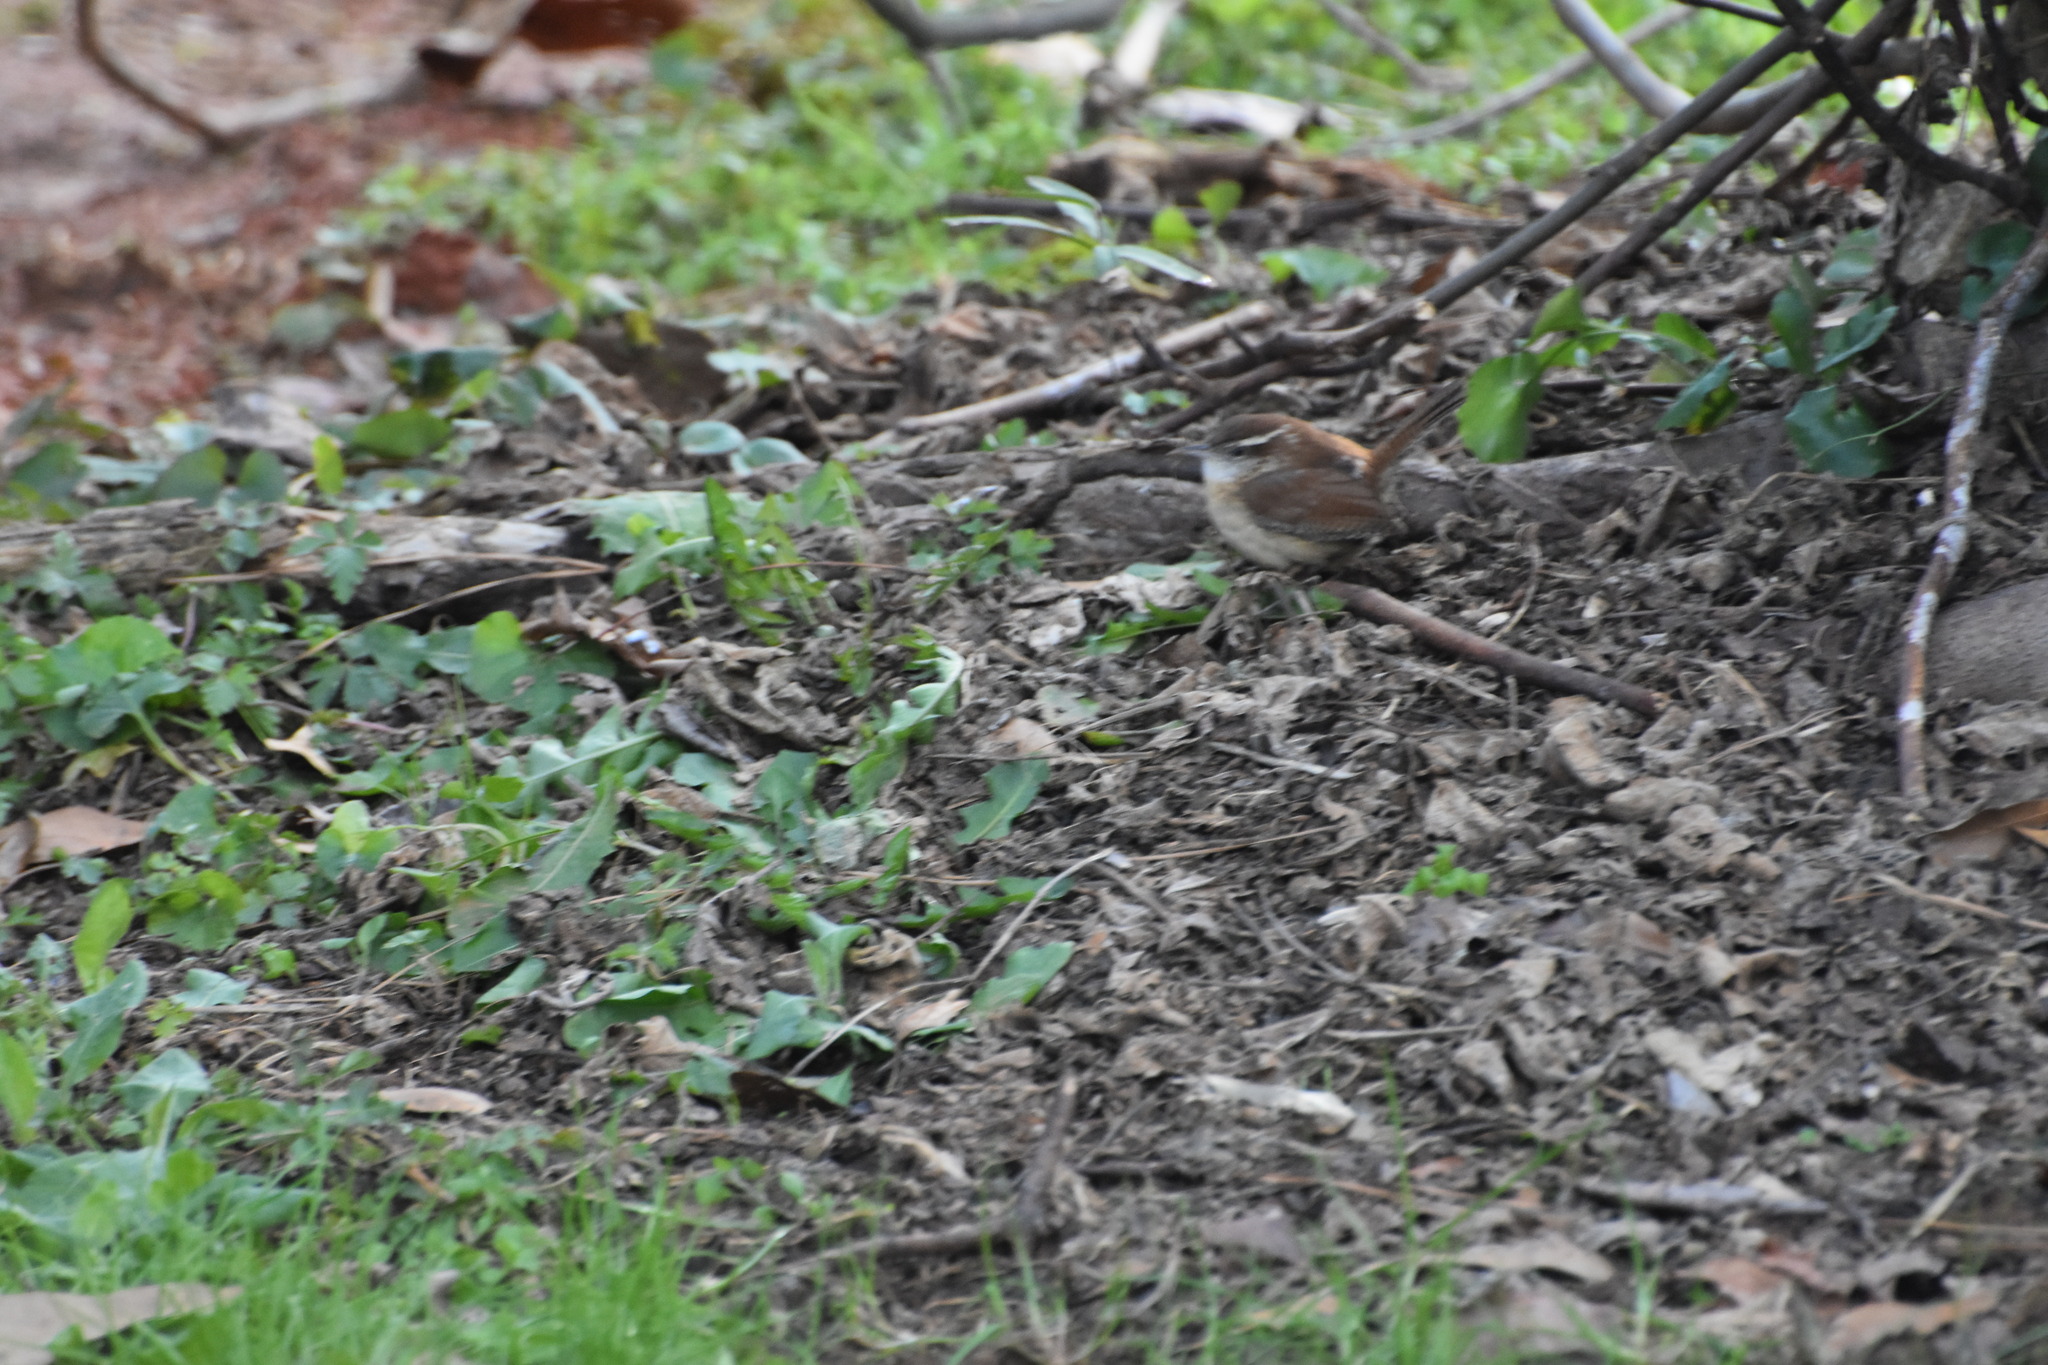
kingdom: Animalia
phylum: Chordata
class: Aves
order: Passeriformes
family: Troglodytidae
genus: Thryothorus
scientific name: Thryothorus ludovicianus
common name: Carolina wren
